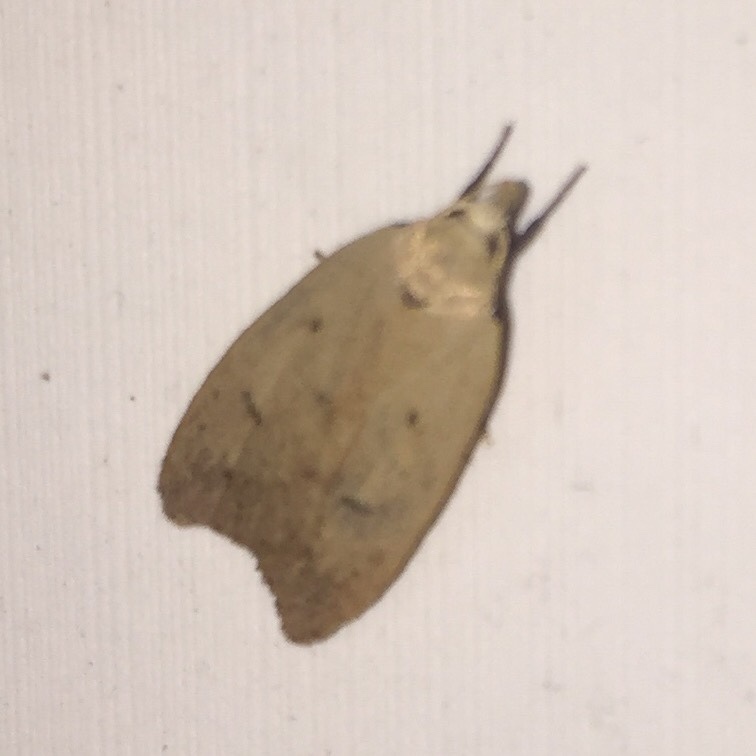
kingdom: Animalia
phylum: Arthropoda
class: Insecta
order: Lepidoptera
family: Peleopodidae
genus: Machimia
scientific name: Machimia tentoriferella
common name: Gold-striped leaftier moth
